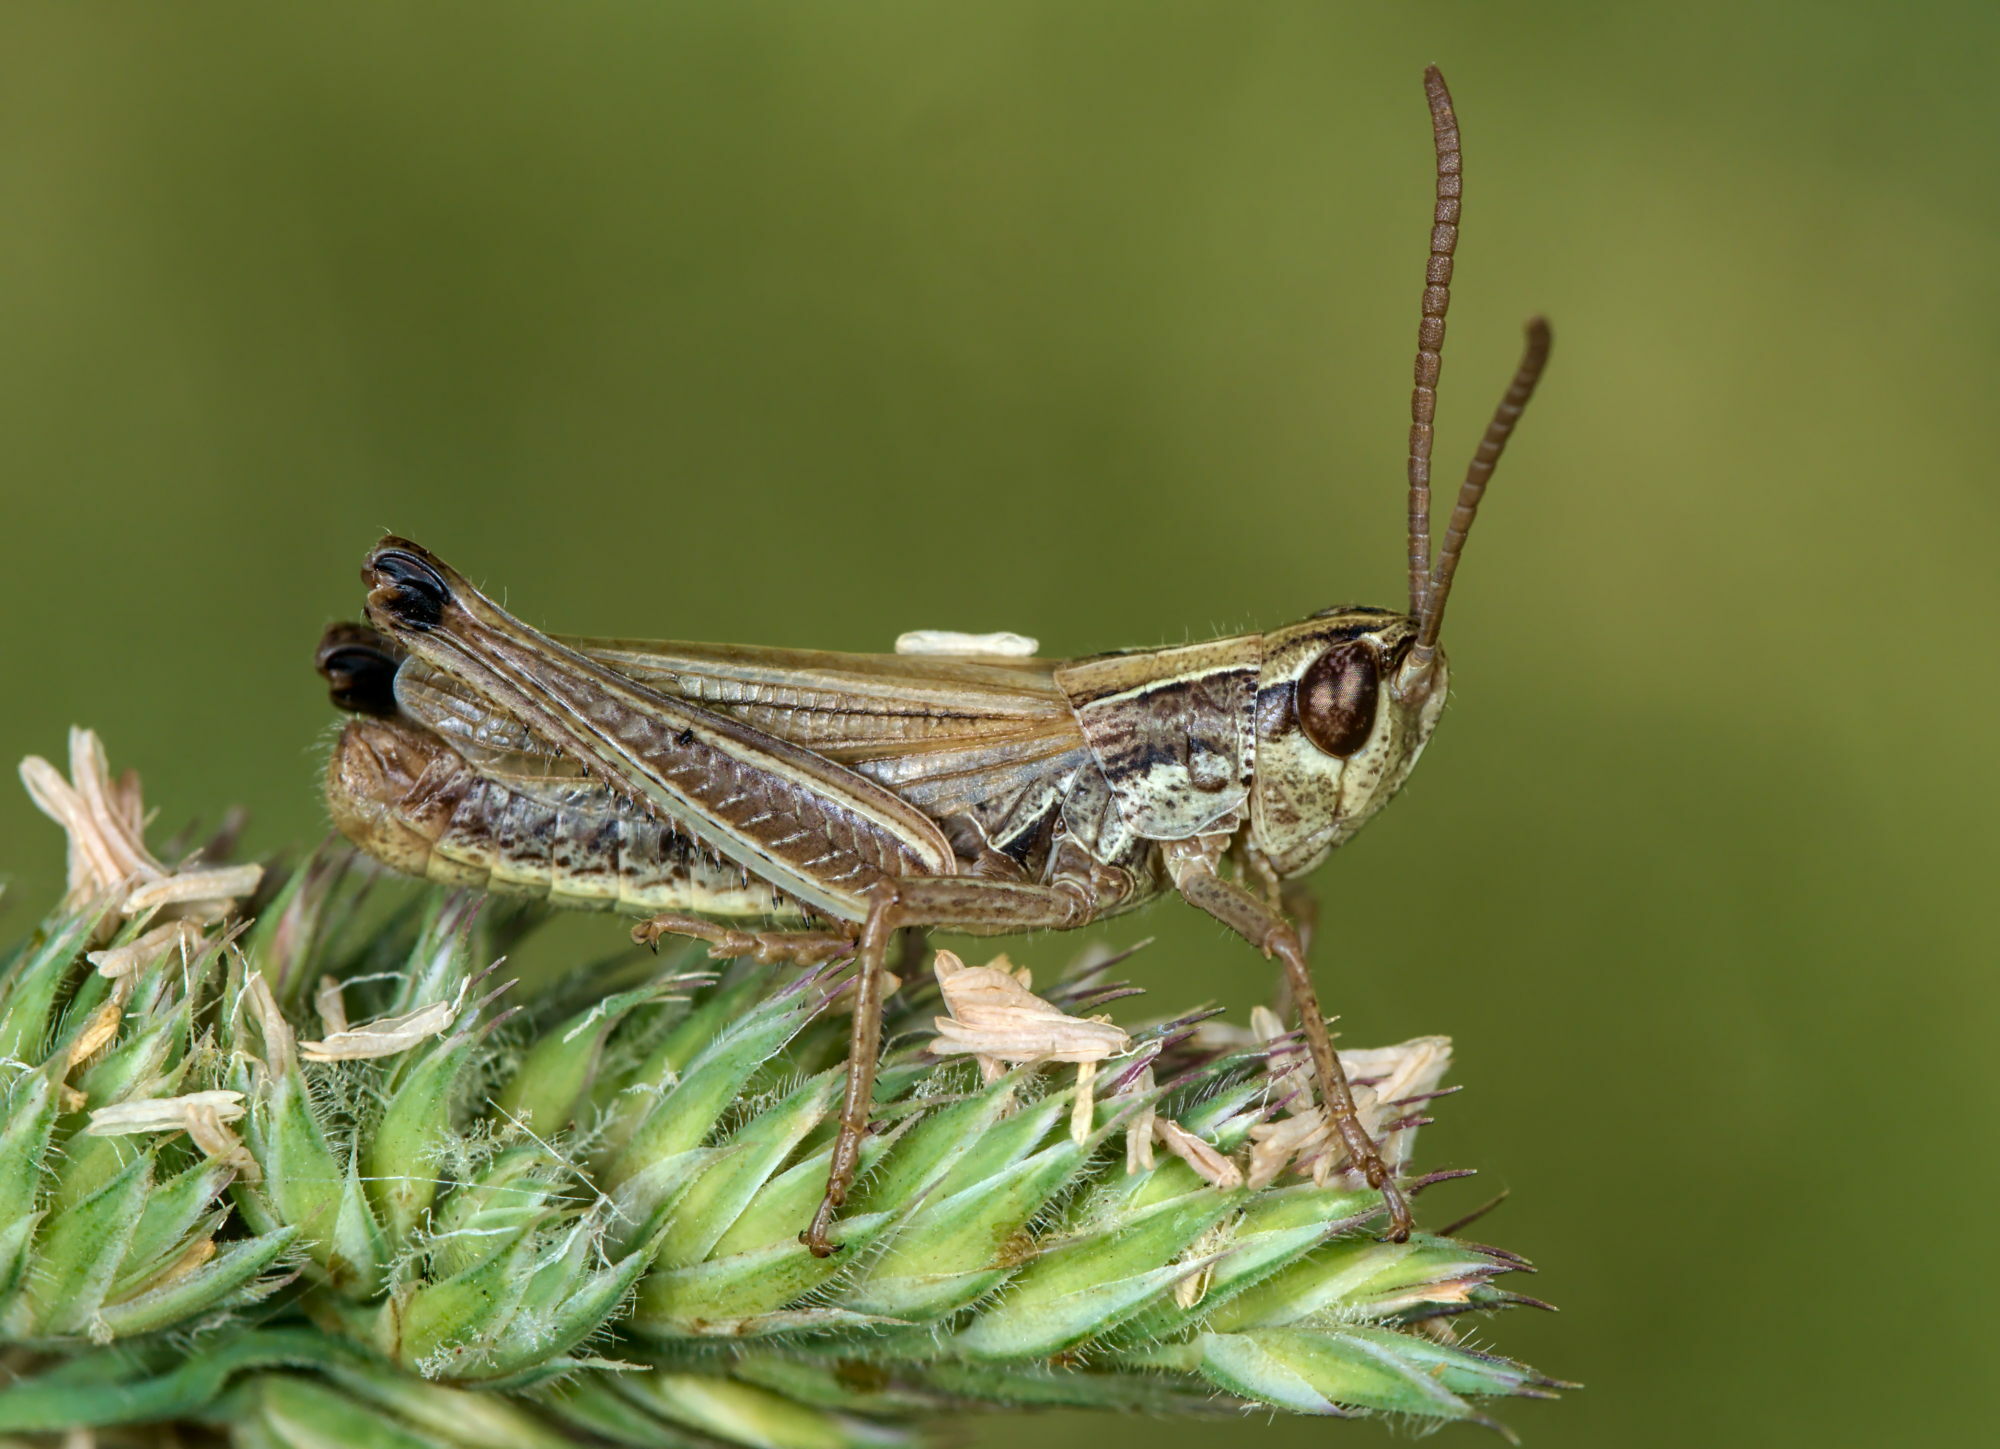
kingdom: Animalia
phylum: Arthropoda
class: Insecta
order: Orthoptera
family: Acrididae
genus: Pseudochorthippus
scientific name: Pseudochorthippus parallelus
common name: Meadow grasshopper
